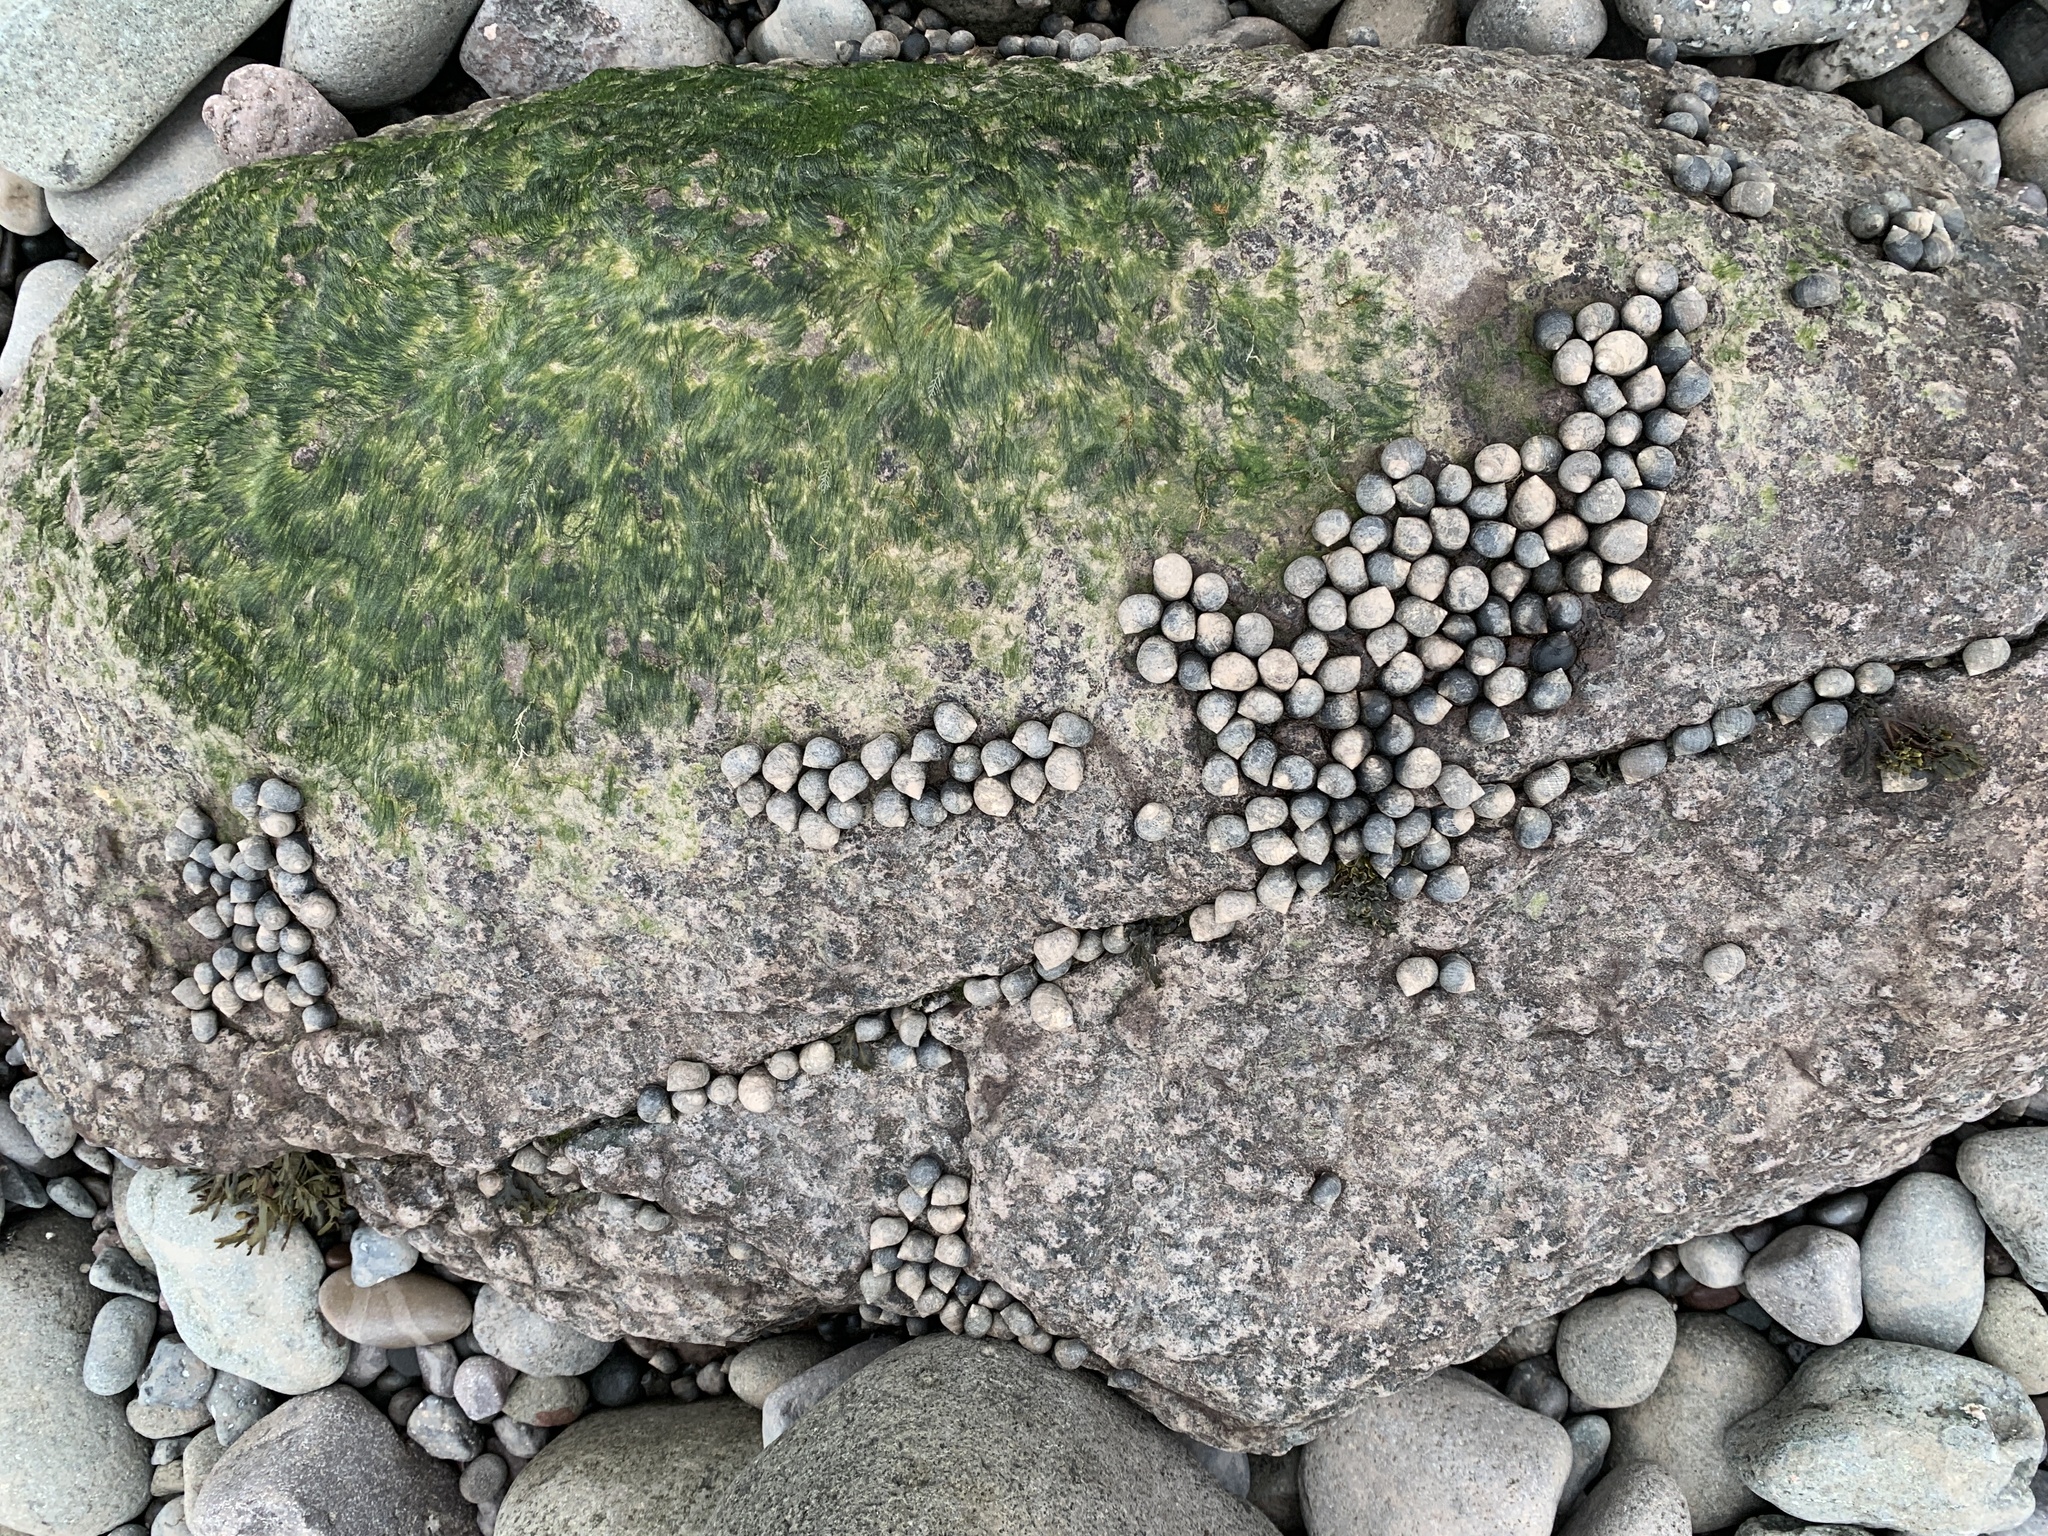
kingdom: Animalia
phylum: Mollusca
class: Gastropoda
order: Littorinimorpha
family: Littorinidae
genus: Littorina
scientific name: Littorina littorea
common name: Common periwinkle
